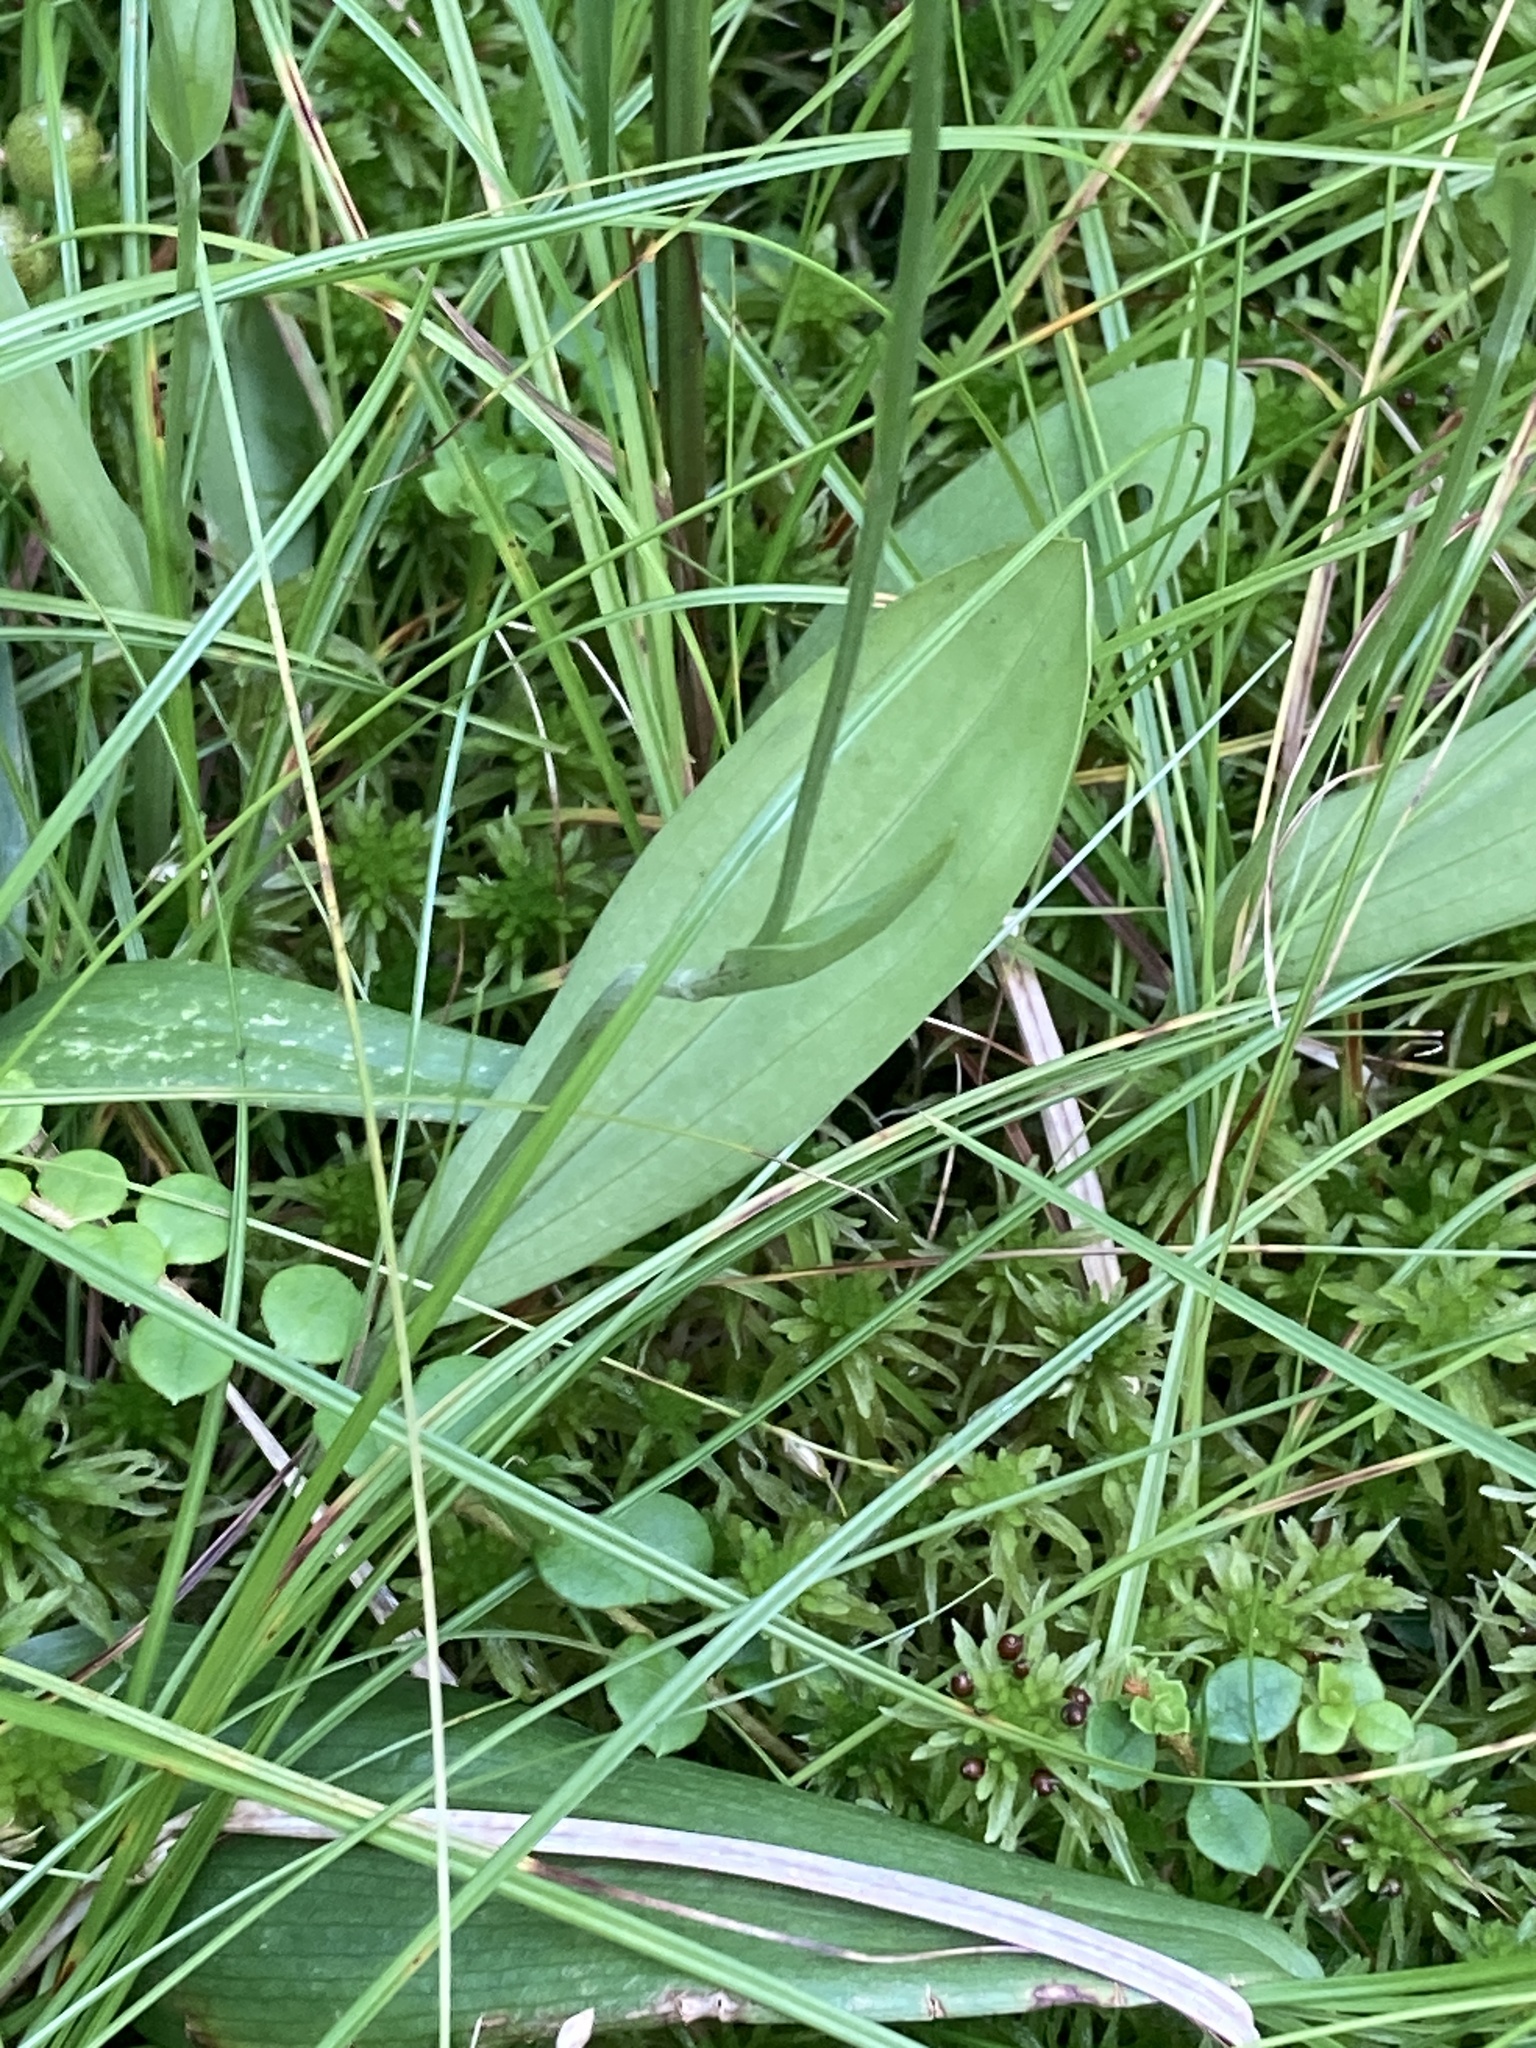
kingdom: Plantae
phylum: Tracheophyta
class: Liliopsida
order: Asparagales
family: Orchidaceae
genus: Platanthera
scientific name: Platanthera clavellata
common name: Club-spur orchid
